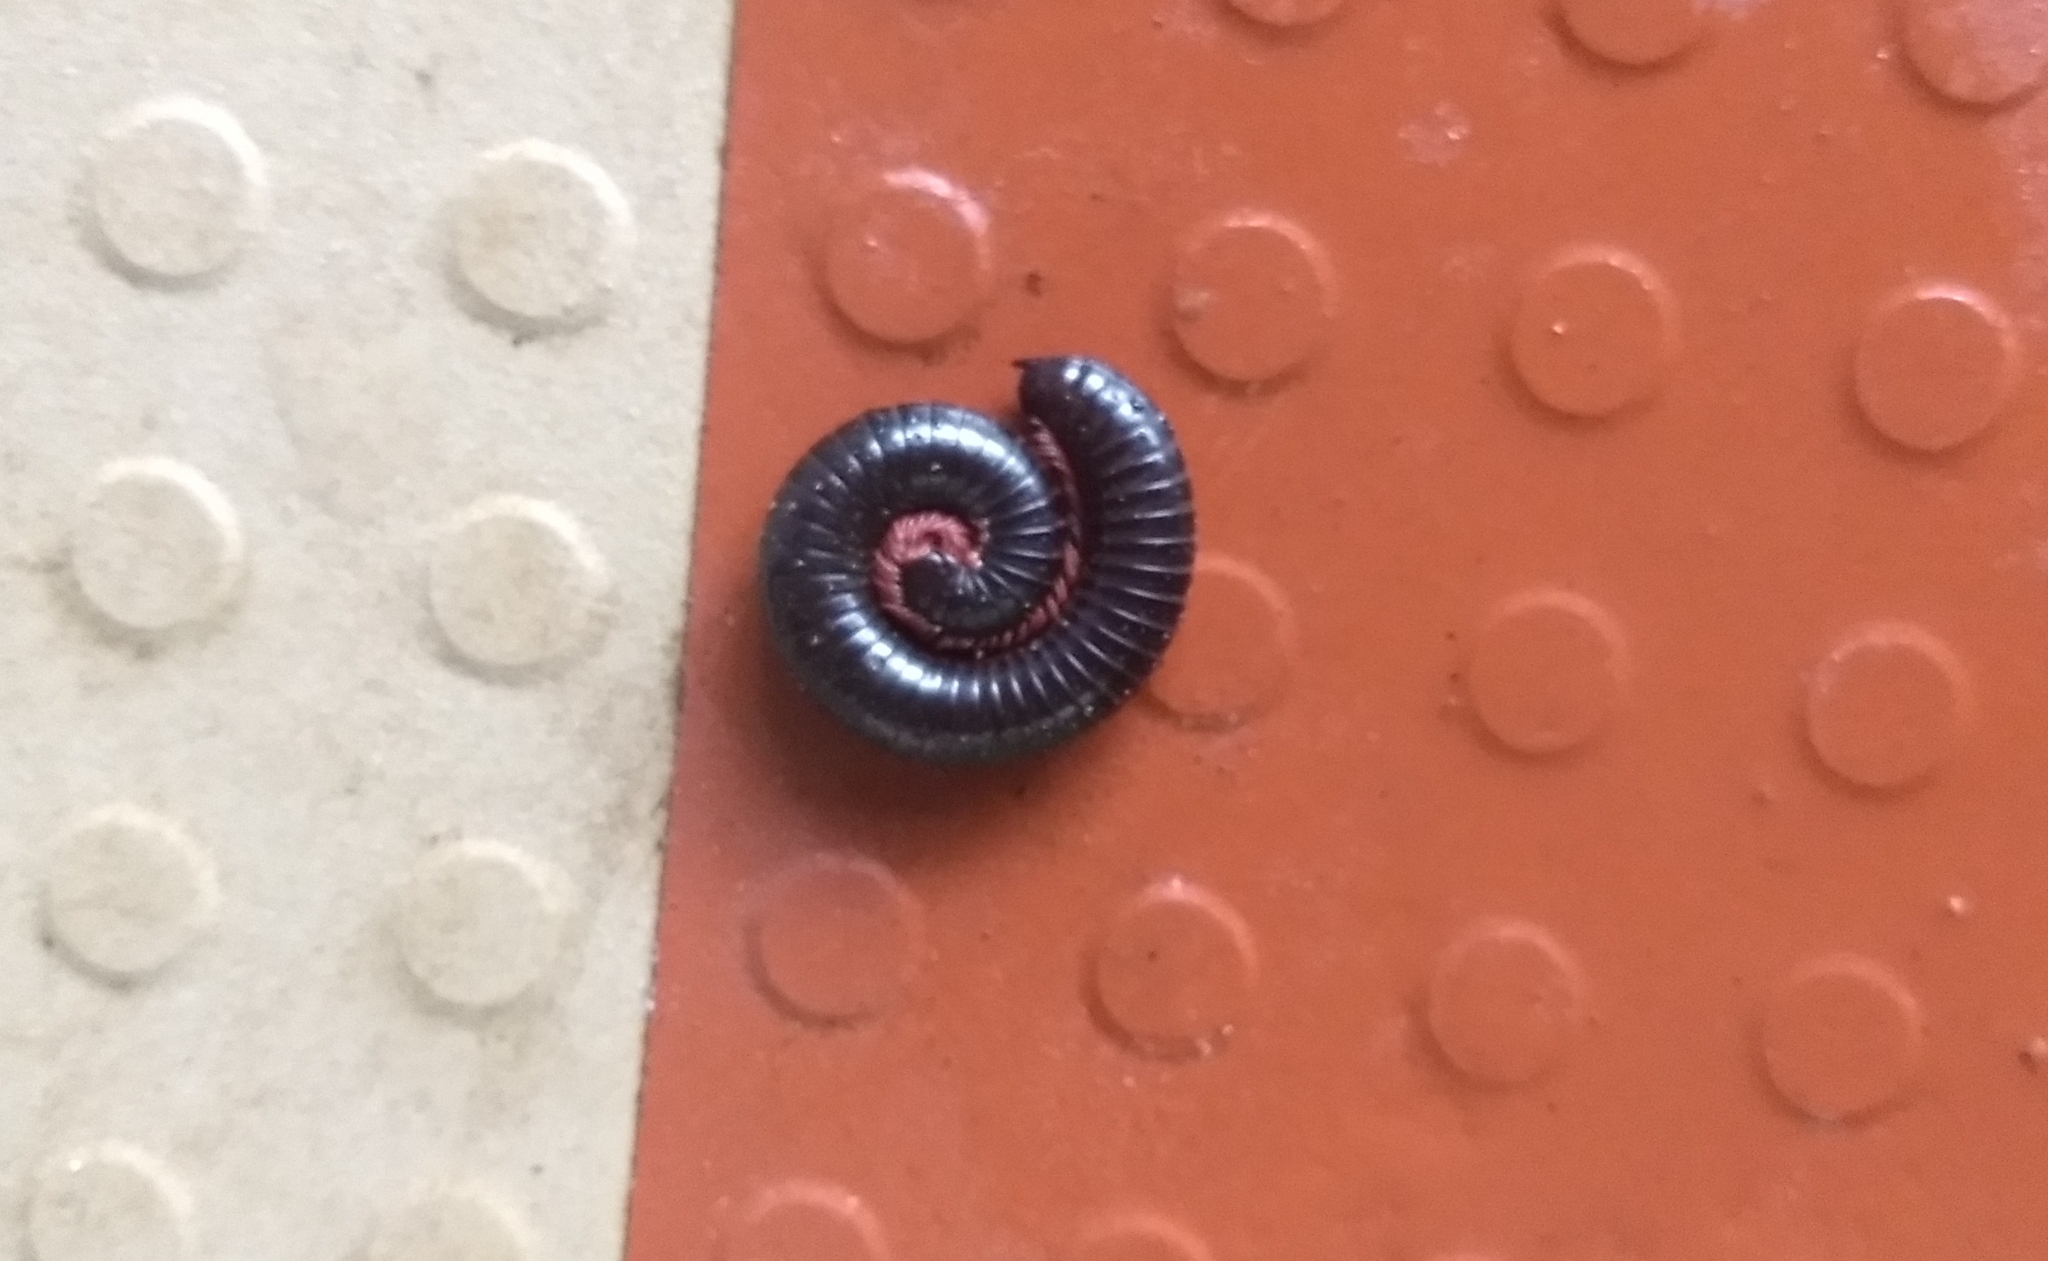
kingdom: Animalia
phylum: Arthropoda
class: Diplopoda
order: Spirostreptida
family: Harpagophoridae
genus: Phyllogonostreptus
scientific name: Phyllogonostreptus nigrolabiatus
